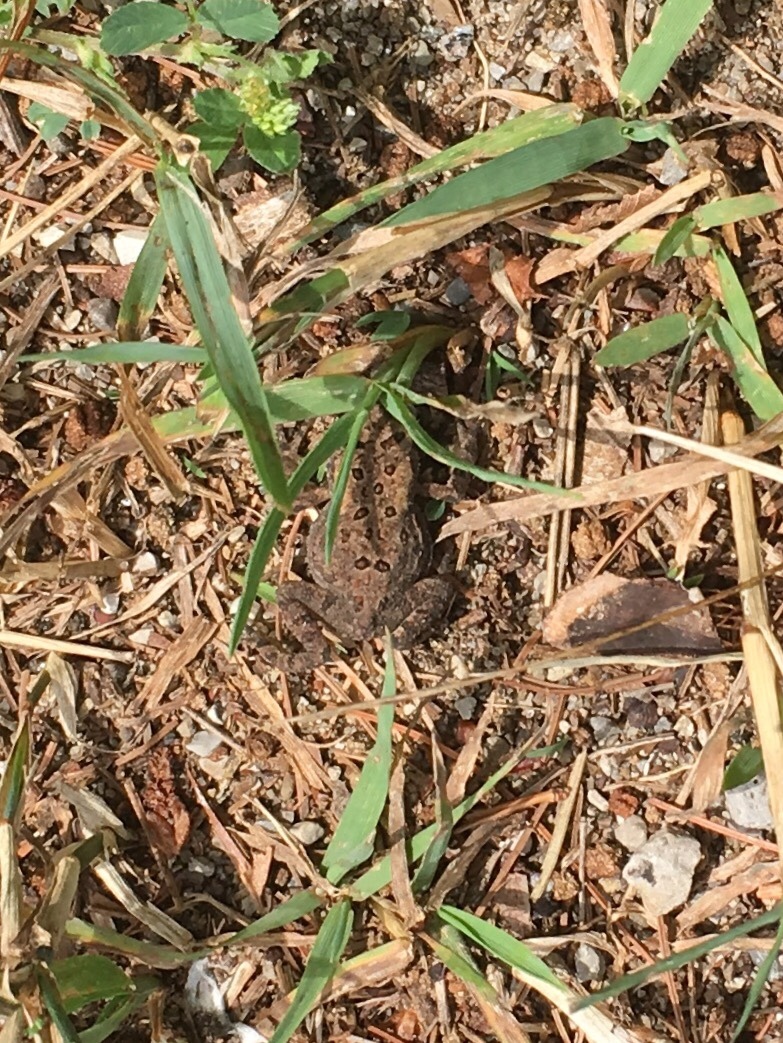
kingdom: Animalia
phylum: Chordata
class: Amphibia
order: Anura
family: Bufonidae
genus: Anaxyrus
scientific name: Anaxyrus americanus
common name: American toad
